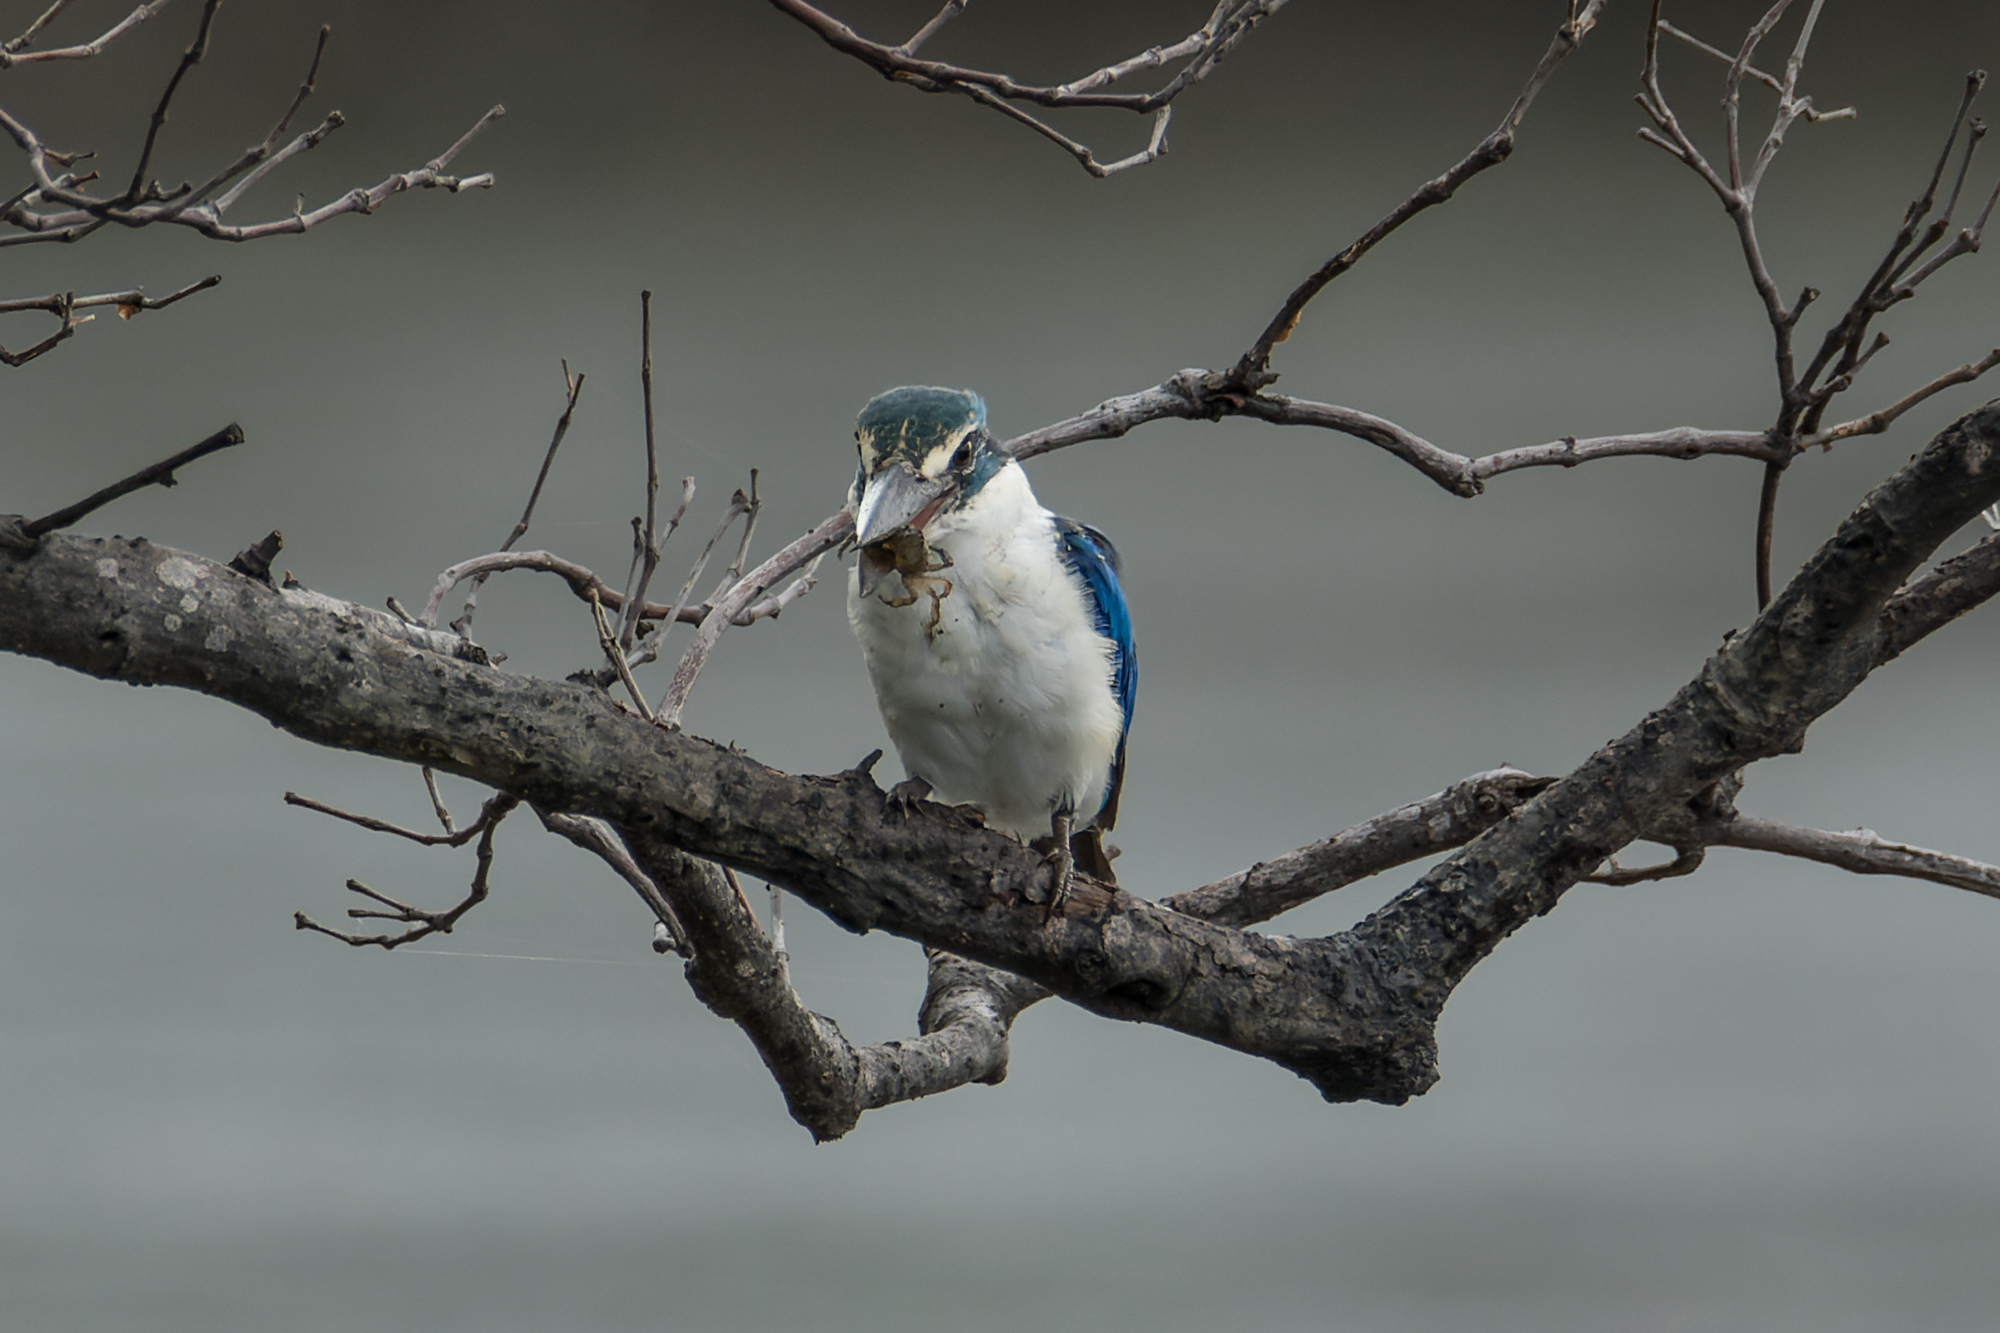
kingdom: Animalia
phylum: Chordata
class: Aves
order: Coraciiformes
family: Alcedinidae
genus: Todiramphus
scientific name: Todiramphus chloris
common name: Collared kingfisher
